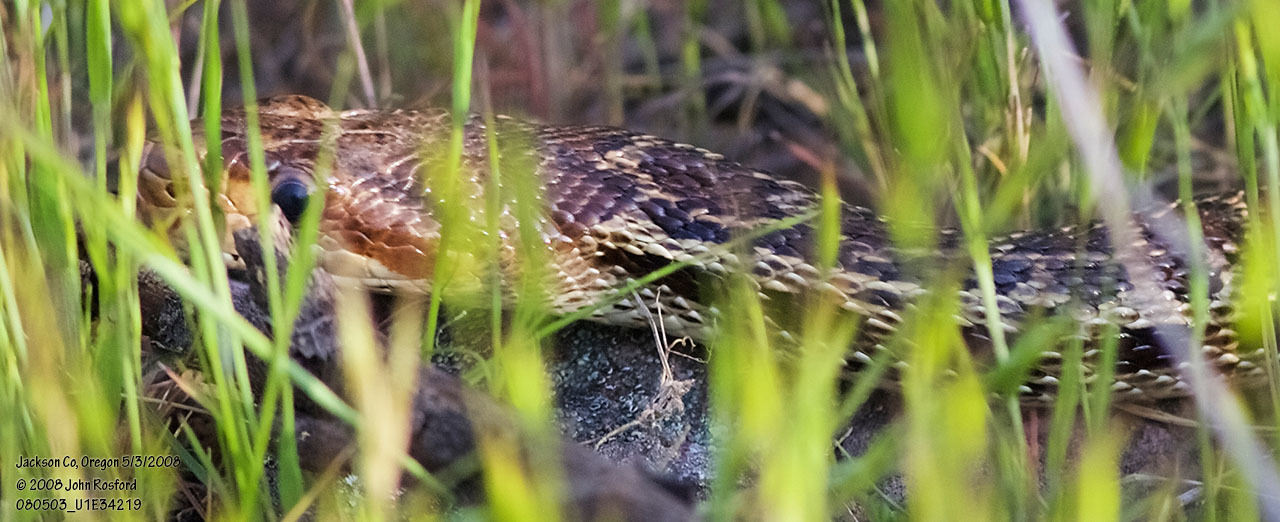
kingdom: Animalia
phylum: Chordata
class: Squamata
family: Colubridae
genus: Pituophis
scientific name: Pituophis catenifer
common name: Gopher snake
